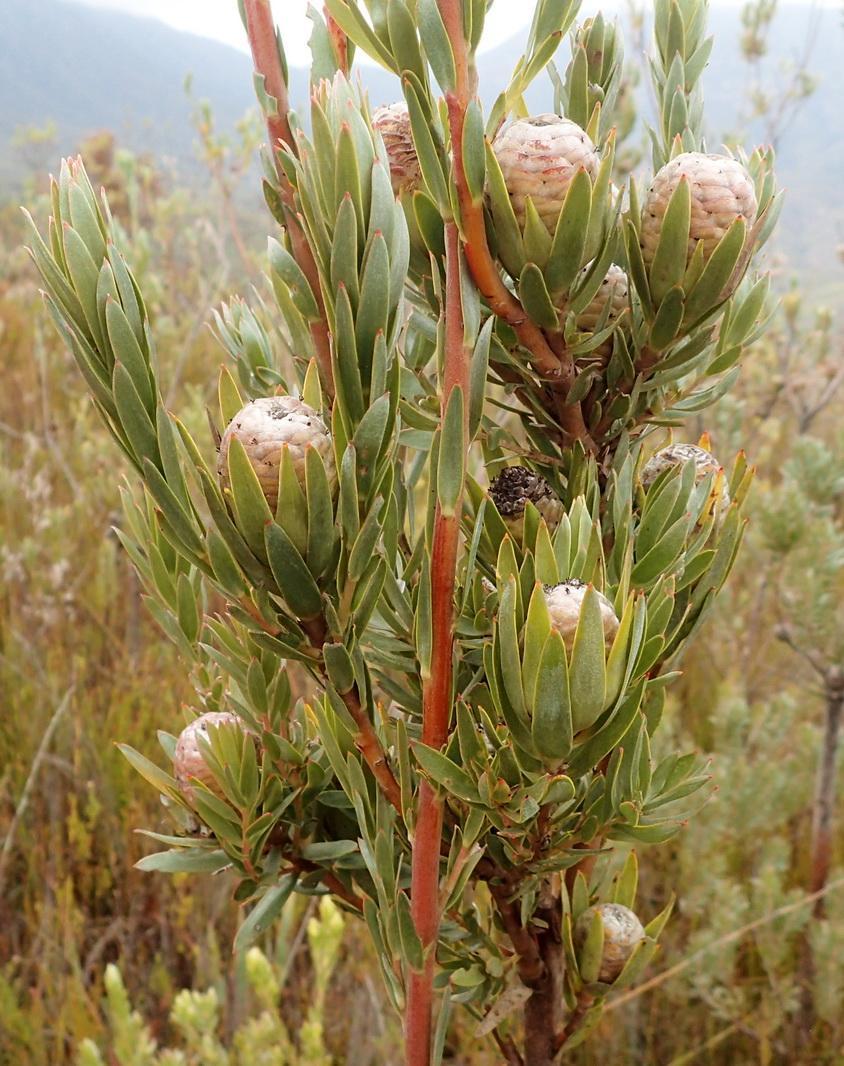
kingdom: Plantae
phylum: Tracheophyta
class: Magnoliopsida
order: Proteales
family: Proteaceae
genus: Leucadendron
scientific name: Leucadendron uliginosum
